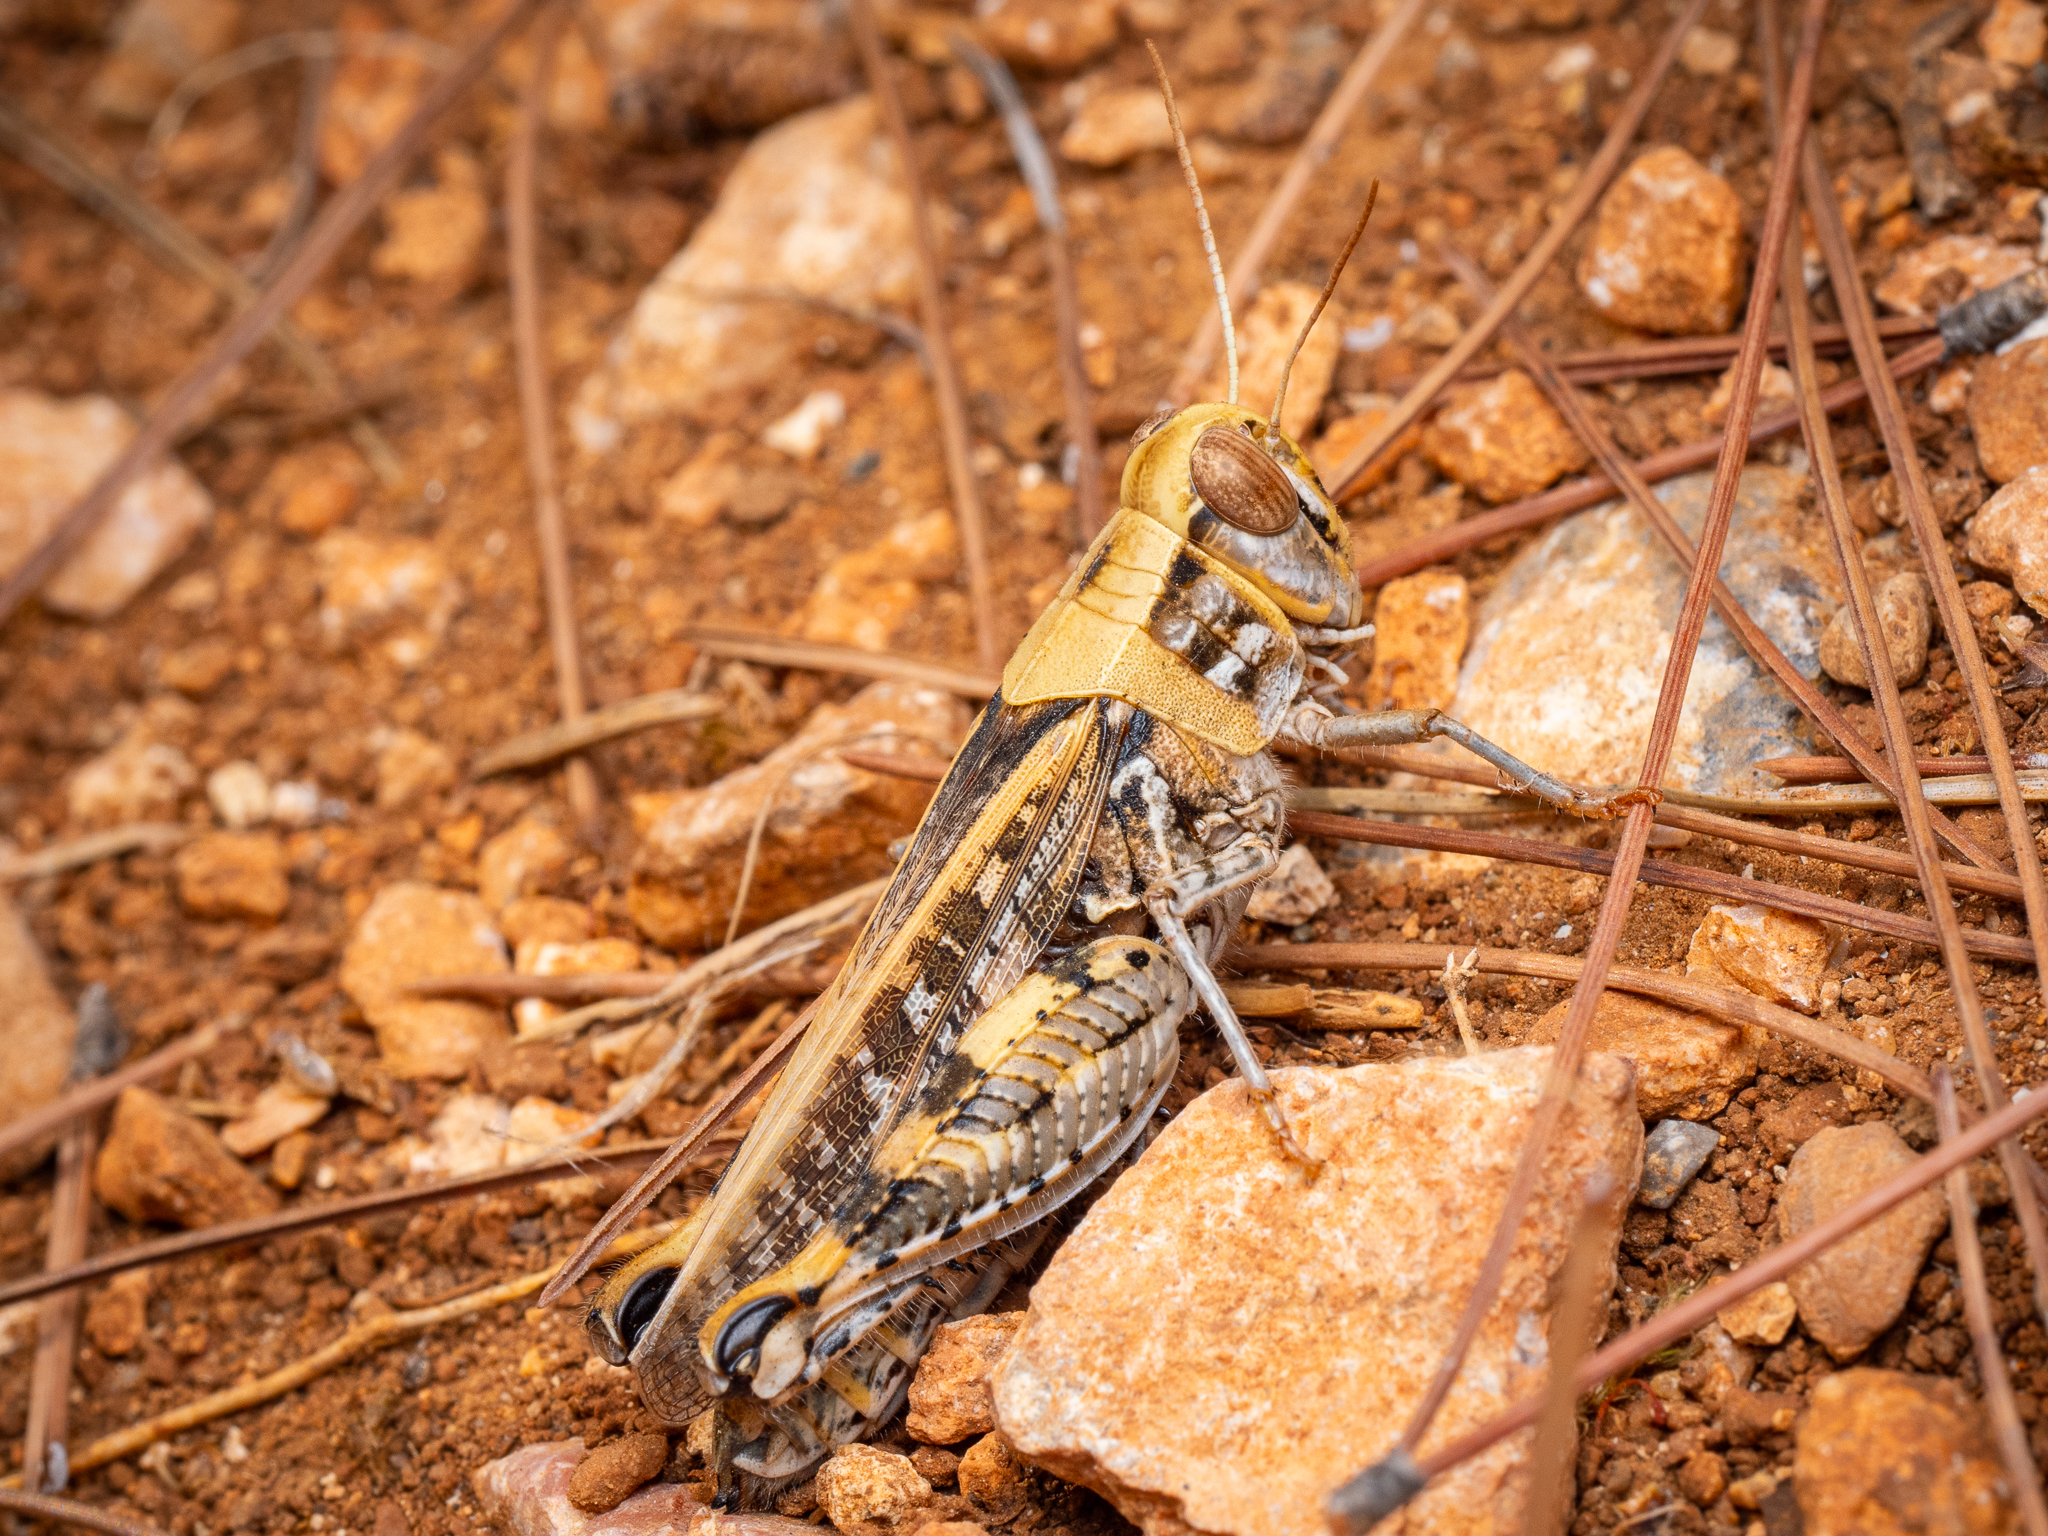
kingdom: Animalia
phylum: Arthropoda
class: Insecta
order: Orthoptera
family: Acrididae
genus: Calliptamus
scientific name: Calliptamus barbarus
